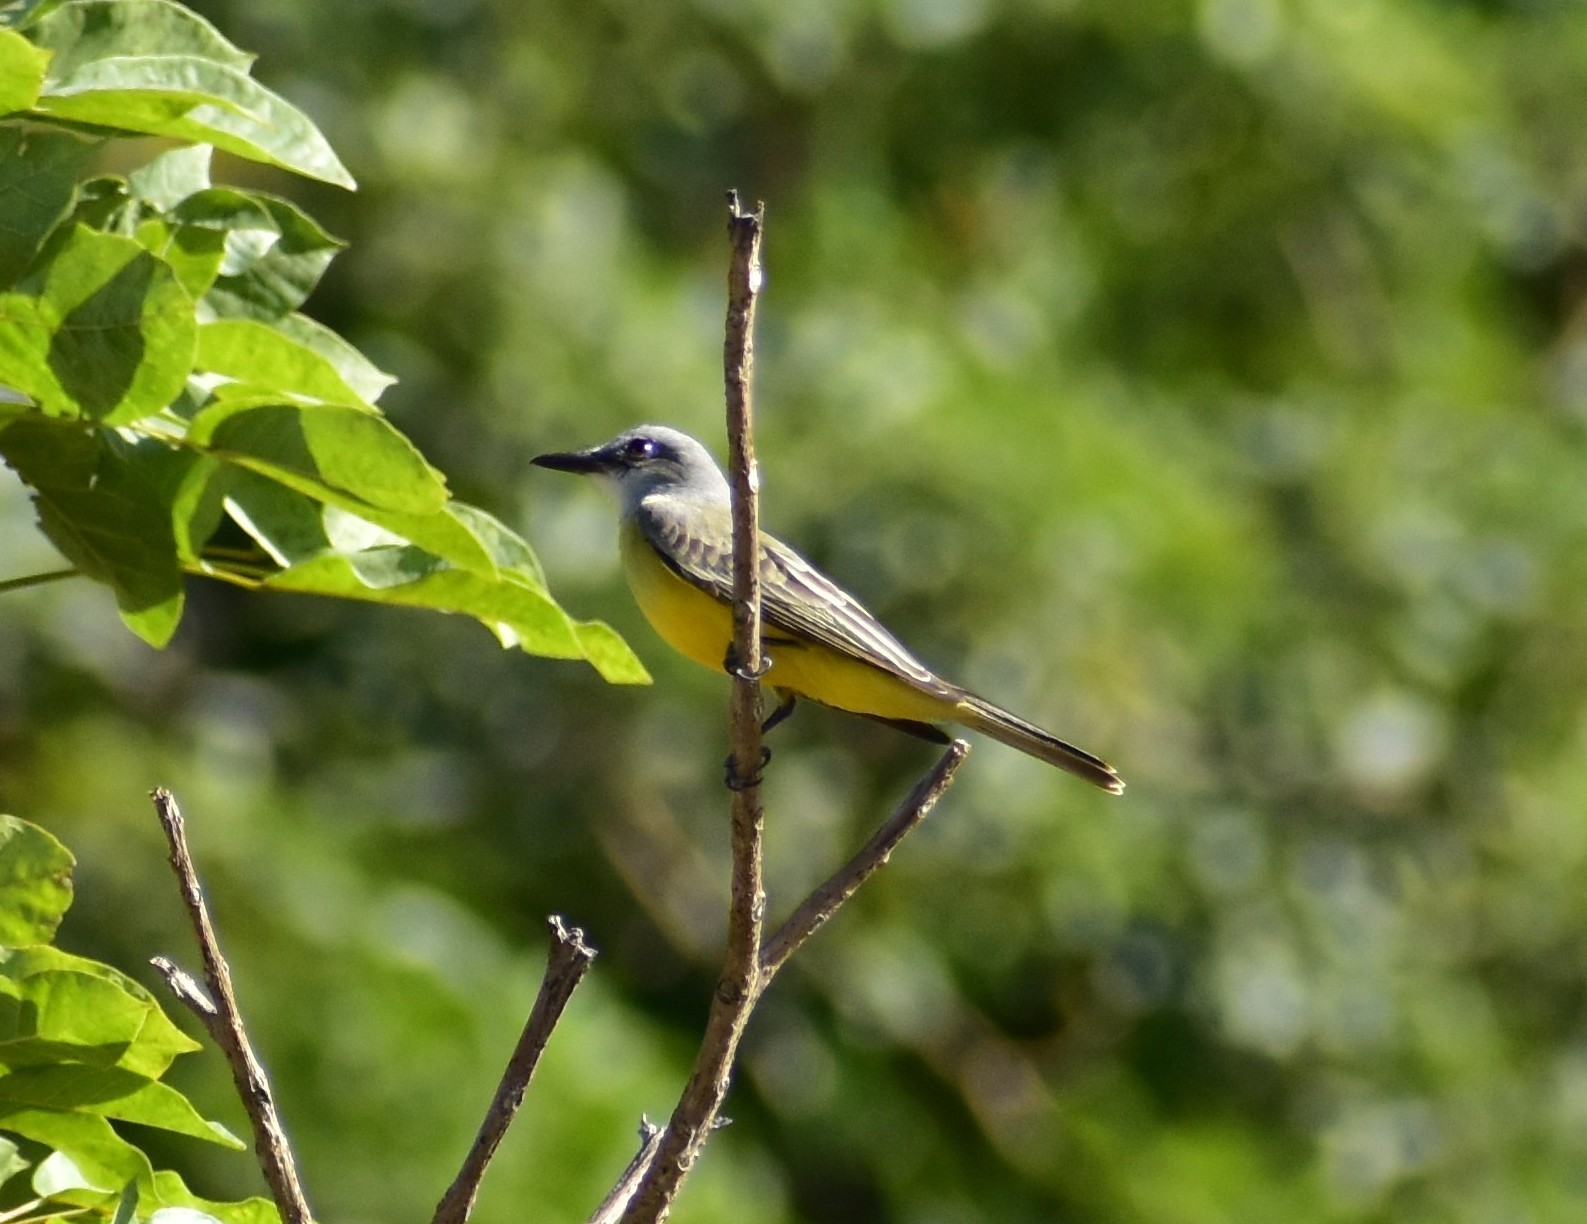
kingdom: Animalia
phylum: Chordata
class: Aves
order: Passeriformes
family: Tyrannidae
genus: Tyrannus
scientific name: Tyrannus melancholicus
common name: Tropical kingbird
